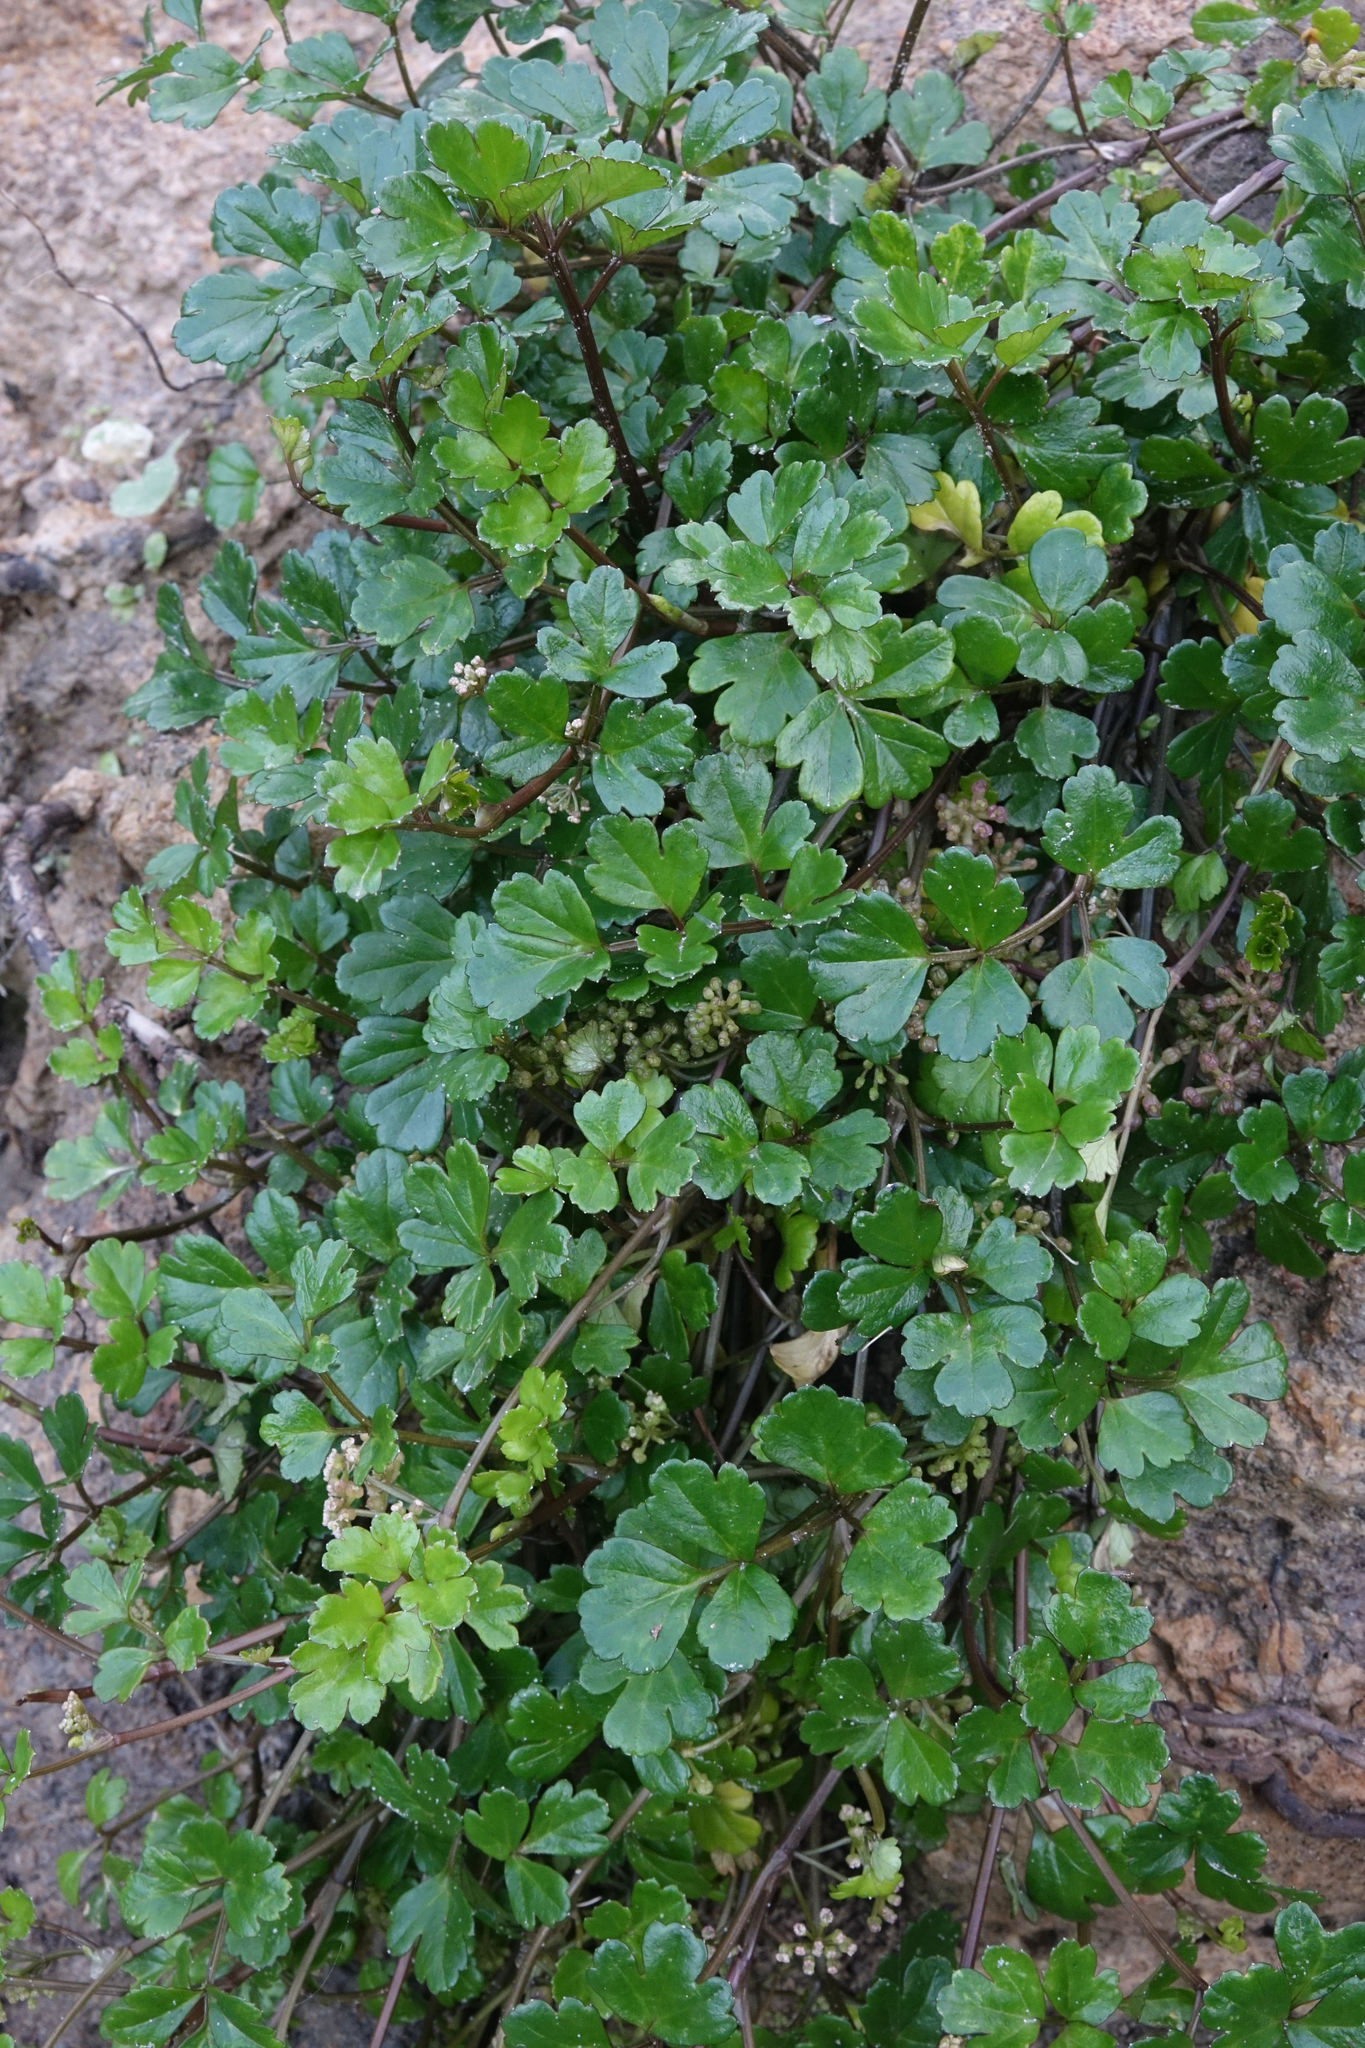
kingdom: Plantae
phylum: Tracheophyta
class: Magnoliopsida
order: Apiales
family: Apiaceae
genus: Apium
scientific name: Apium prostratum
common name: Prostrate marshwort
